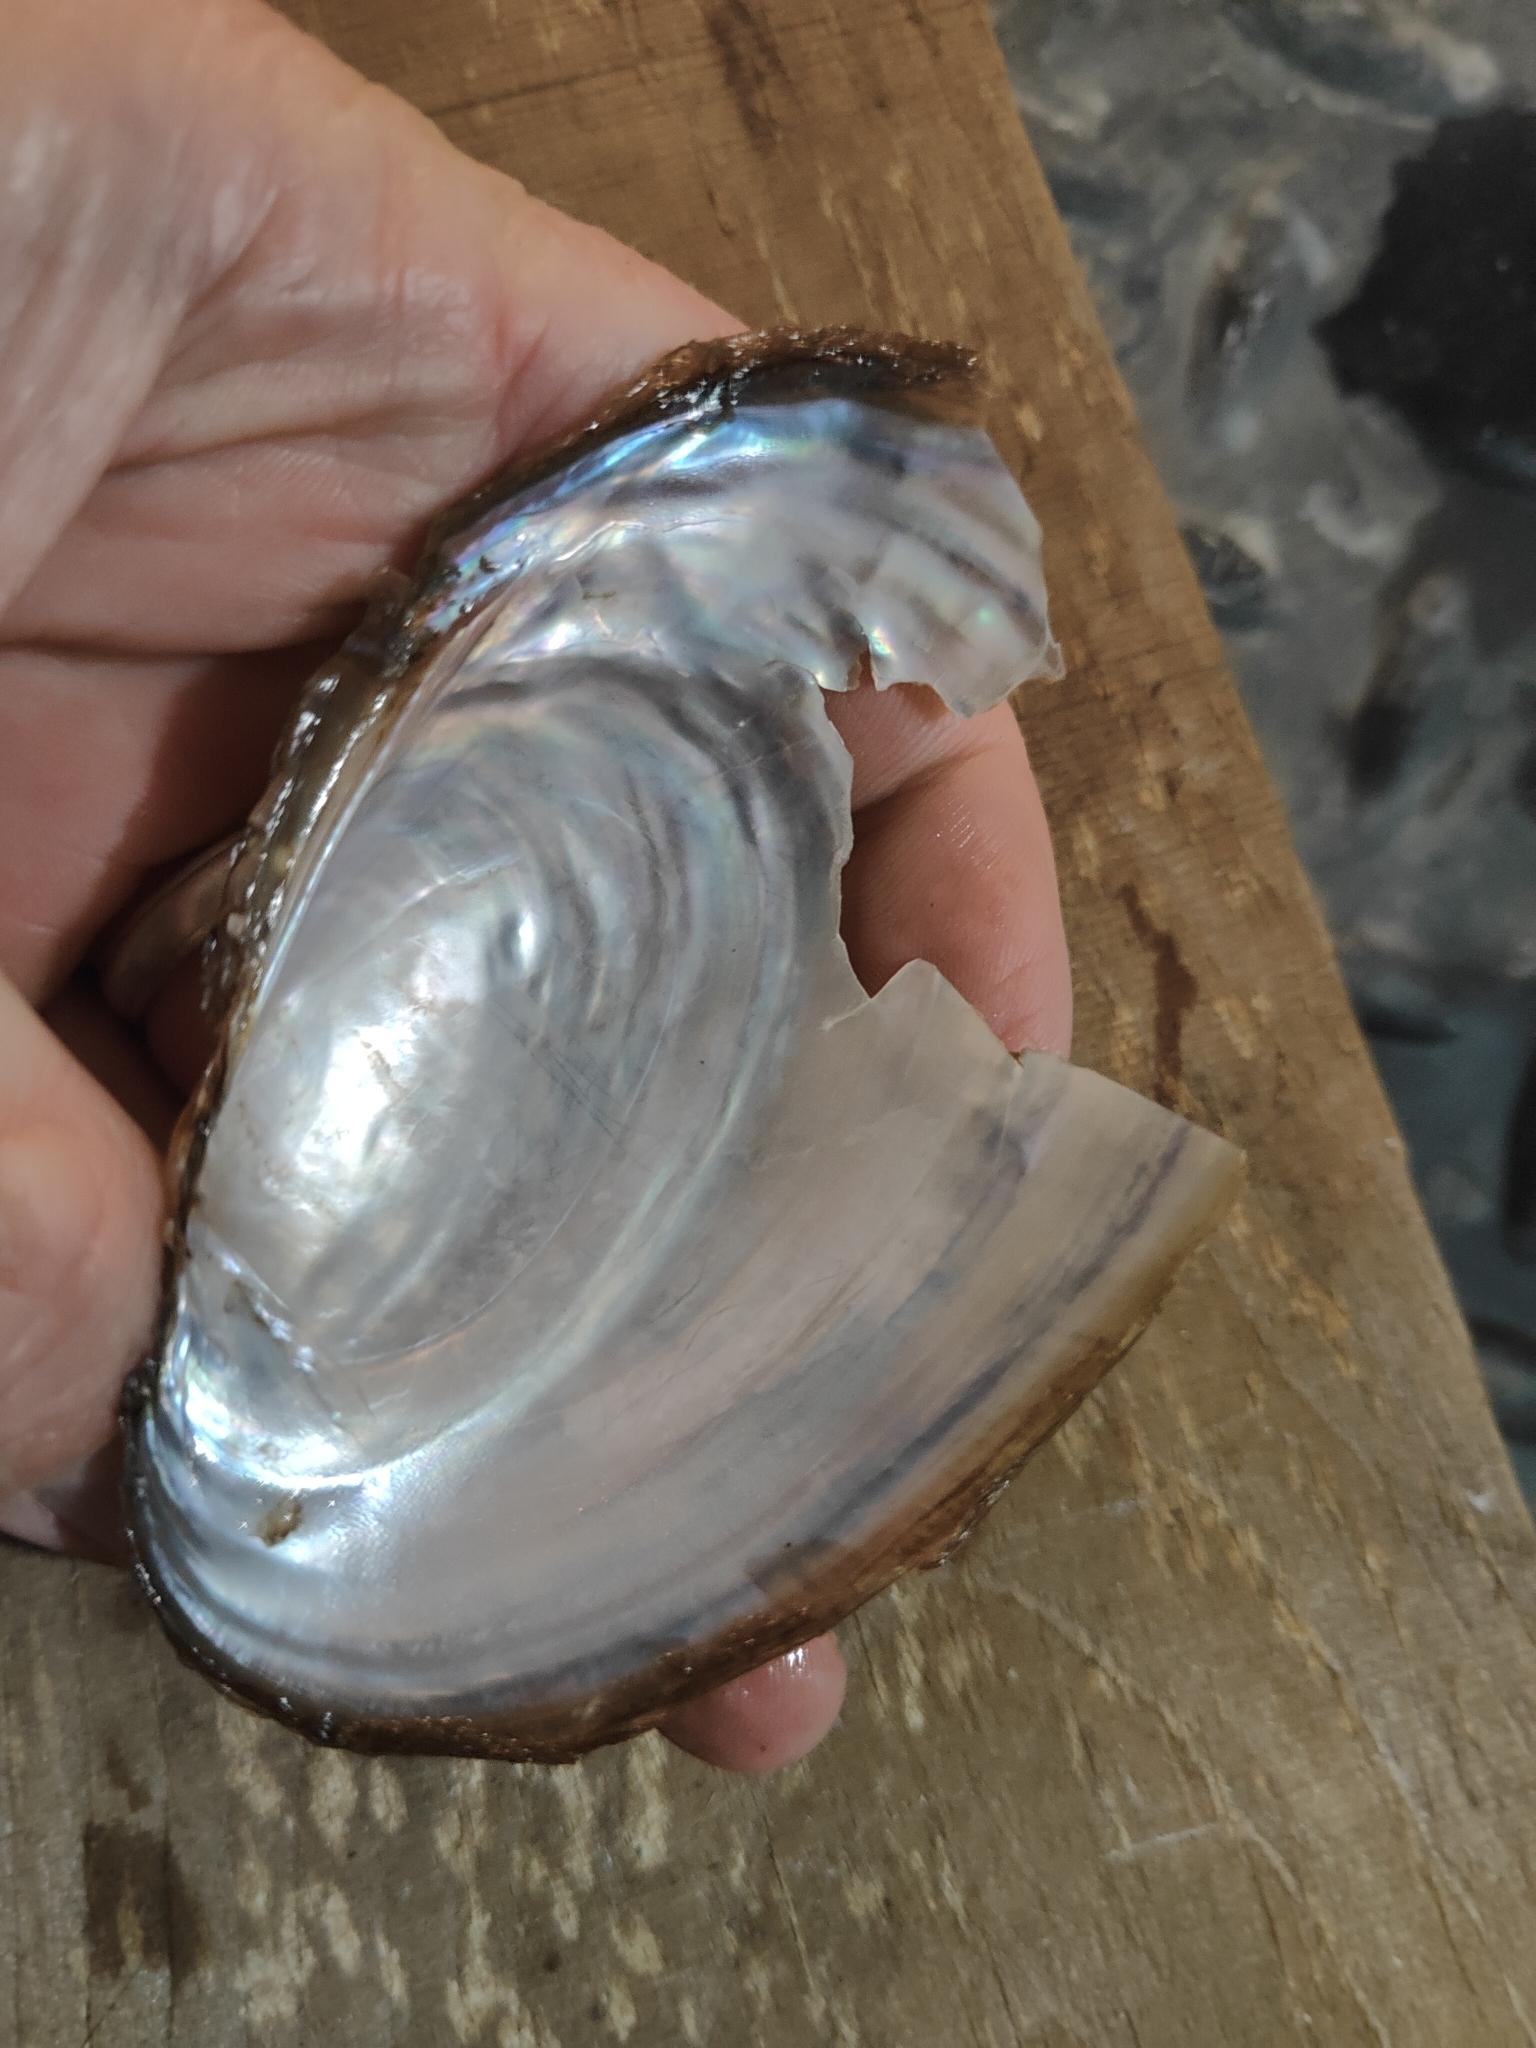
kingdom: Animalia
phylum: Mollusca
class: Bivalvia
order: Unionida
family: Unionidae
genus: Potamilus
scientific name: Potamilus fragilis
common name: Fragile papershell
